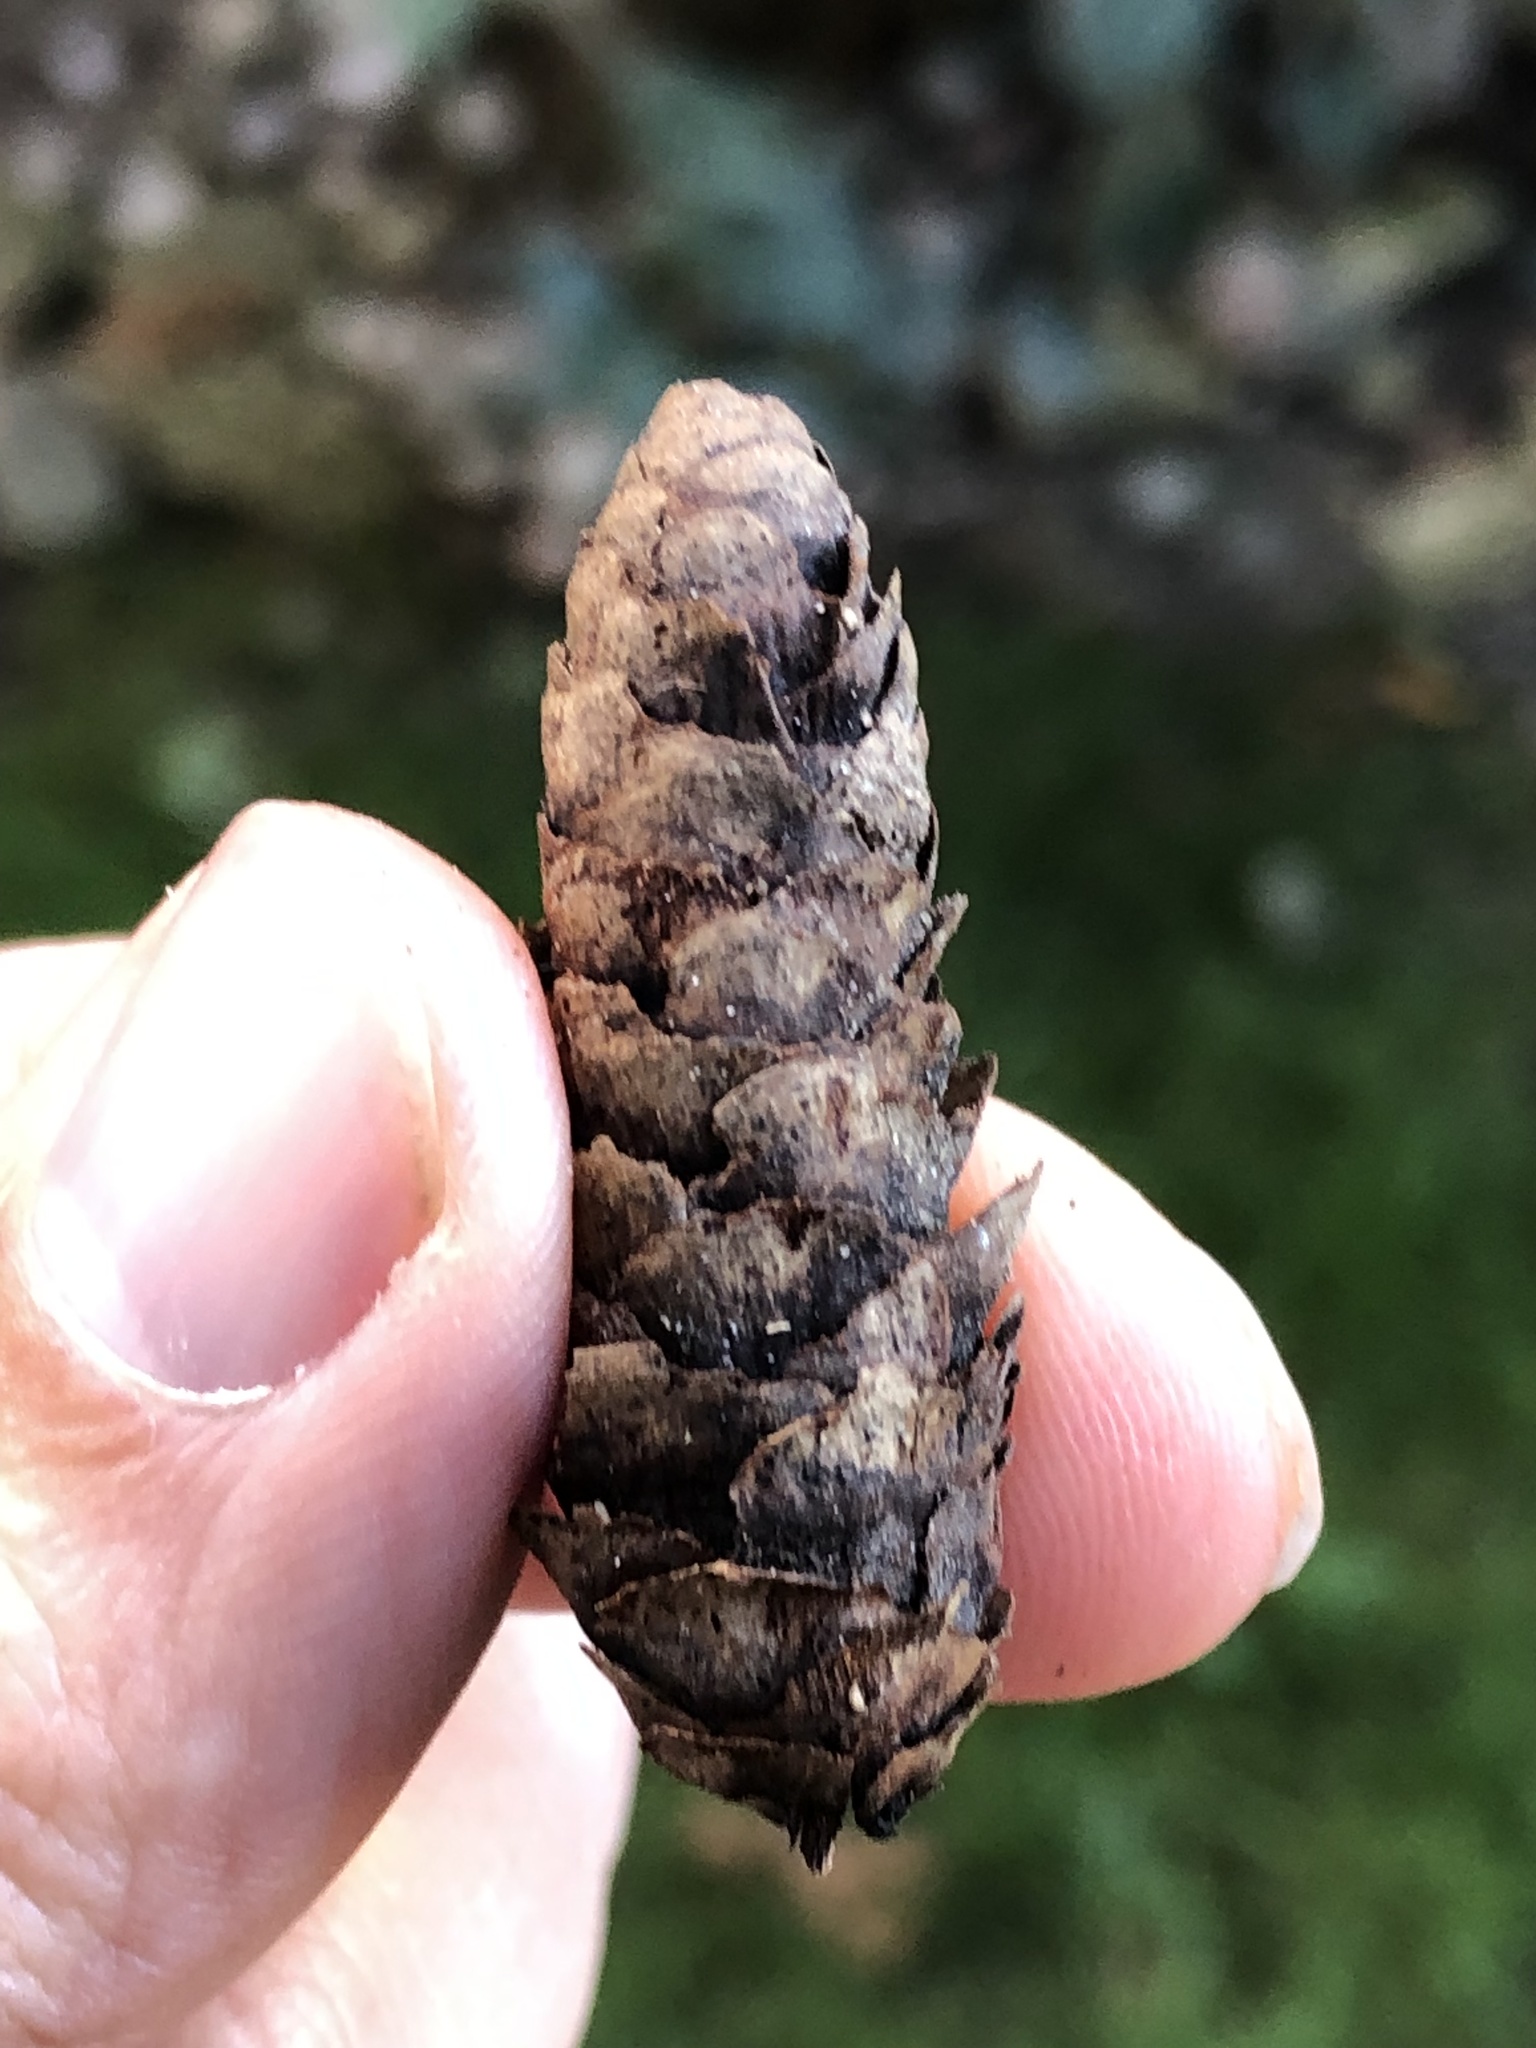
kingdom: Plantae
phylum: Tracheophyta
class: Pinopsida
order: Pinales
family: Pinaceae
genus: Picea
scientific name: Picea glauca
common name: White spruce
